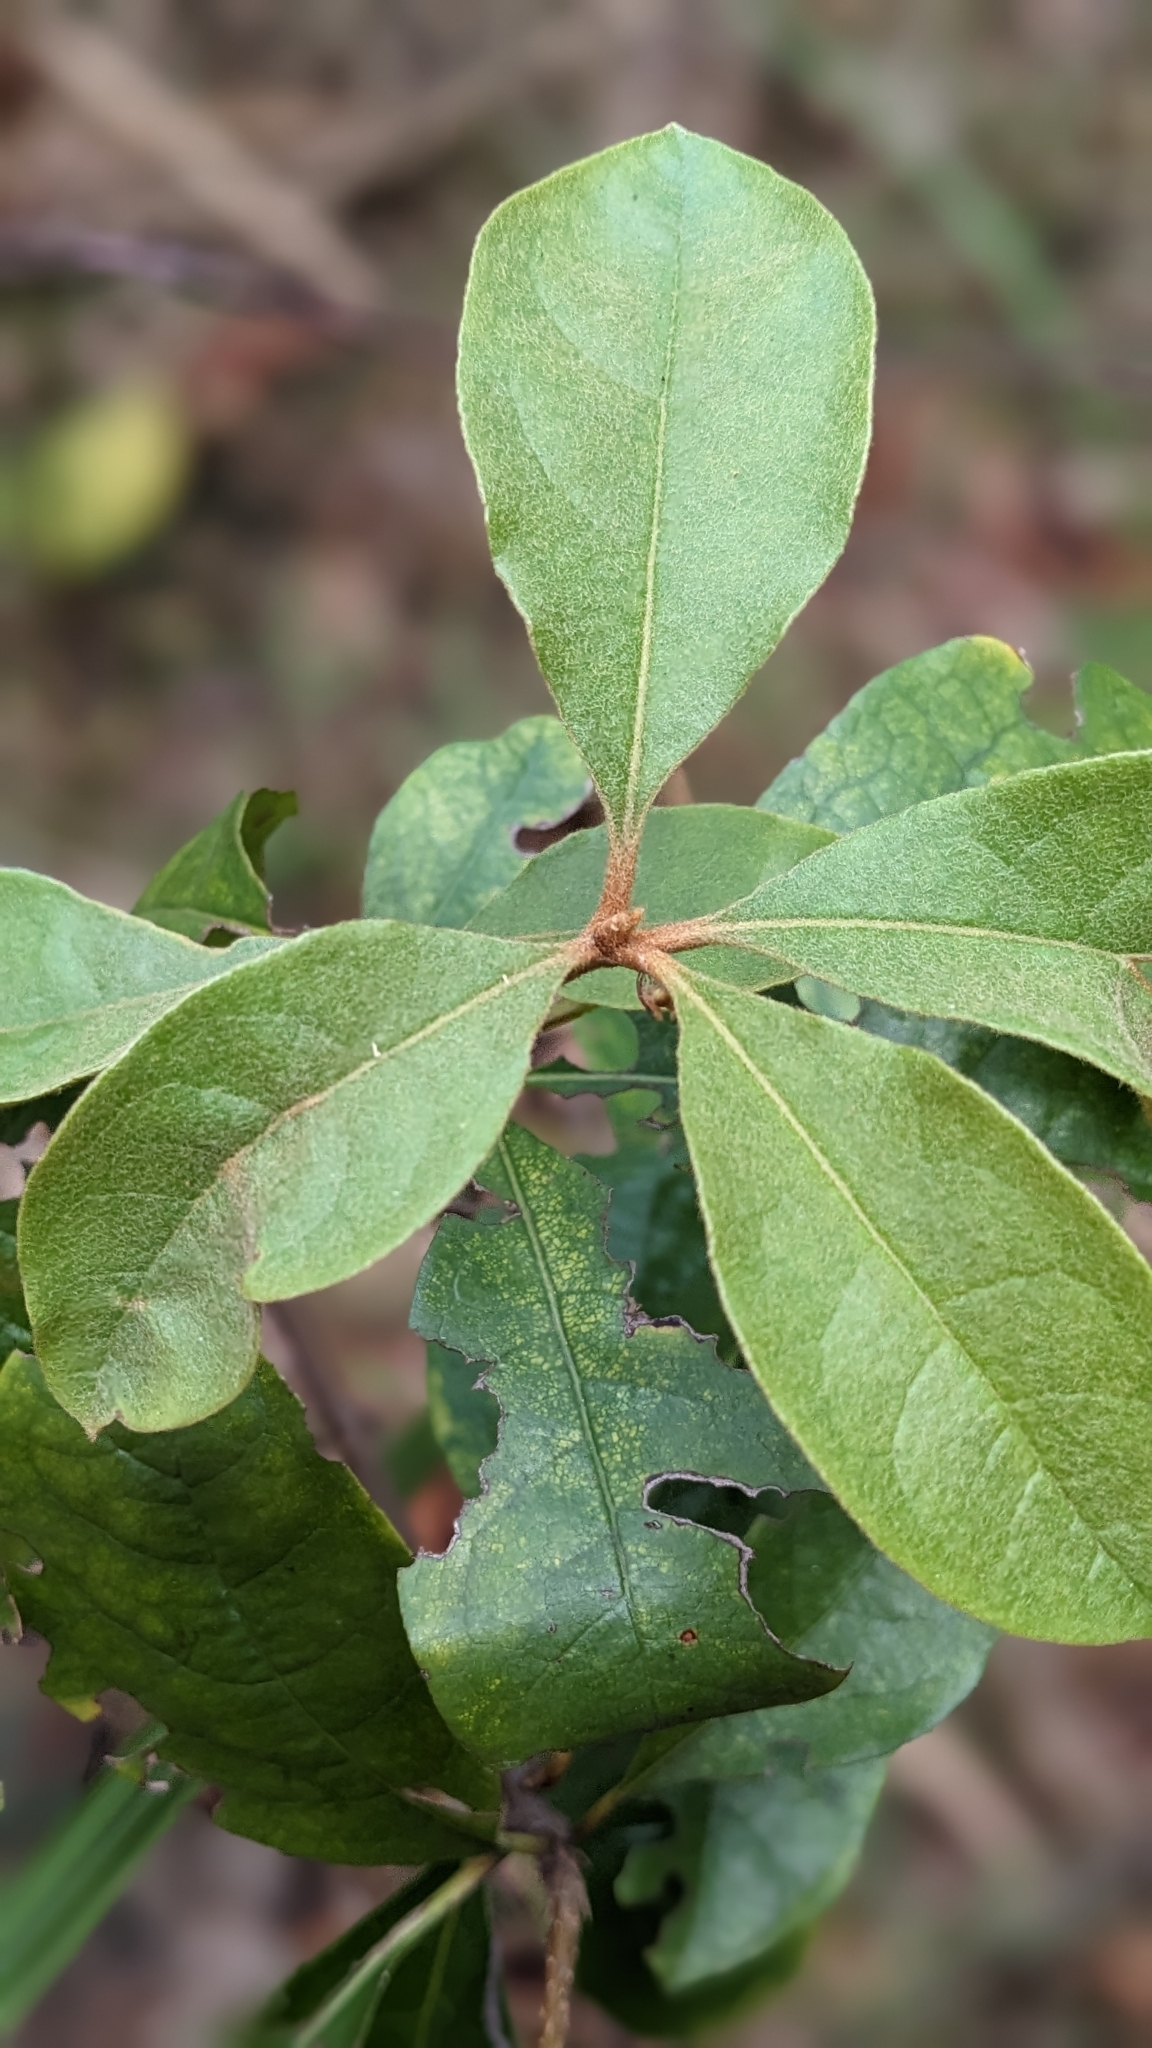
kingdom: Plantae
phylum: Tracheophyta
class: Magnoliopsida
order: Apiales
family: Pittosporaceae
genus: Pittosporum
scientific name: Pittosporum revolutum
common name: Brisbane-laurel
